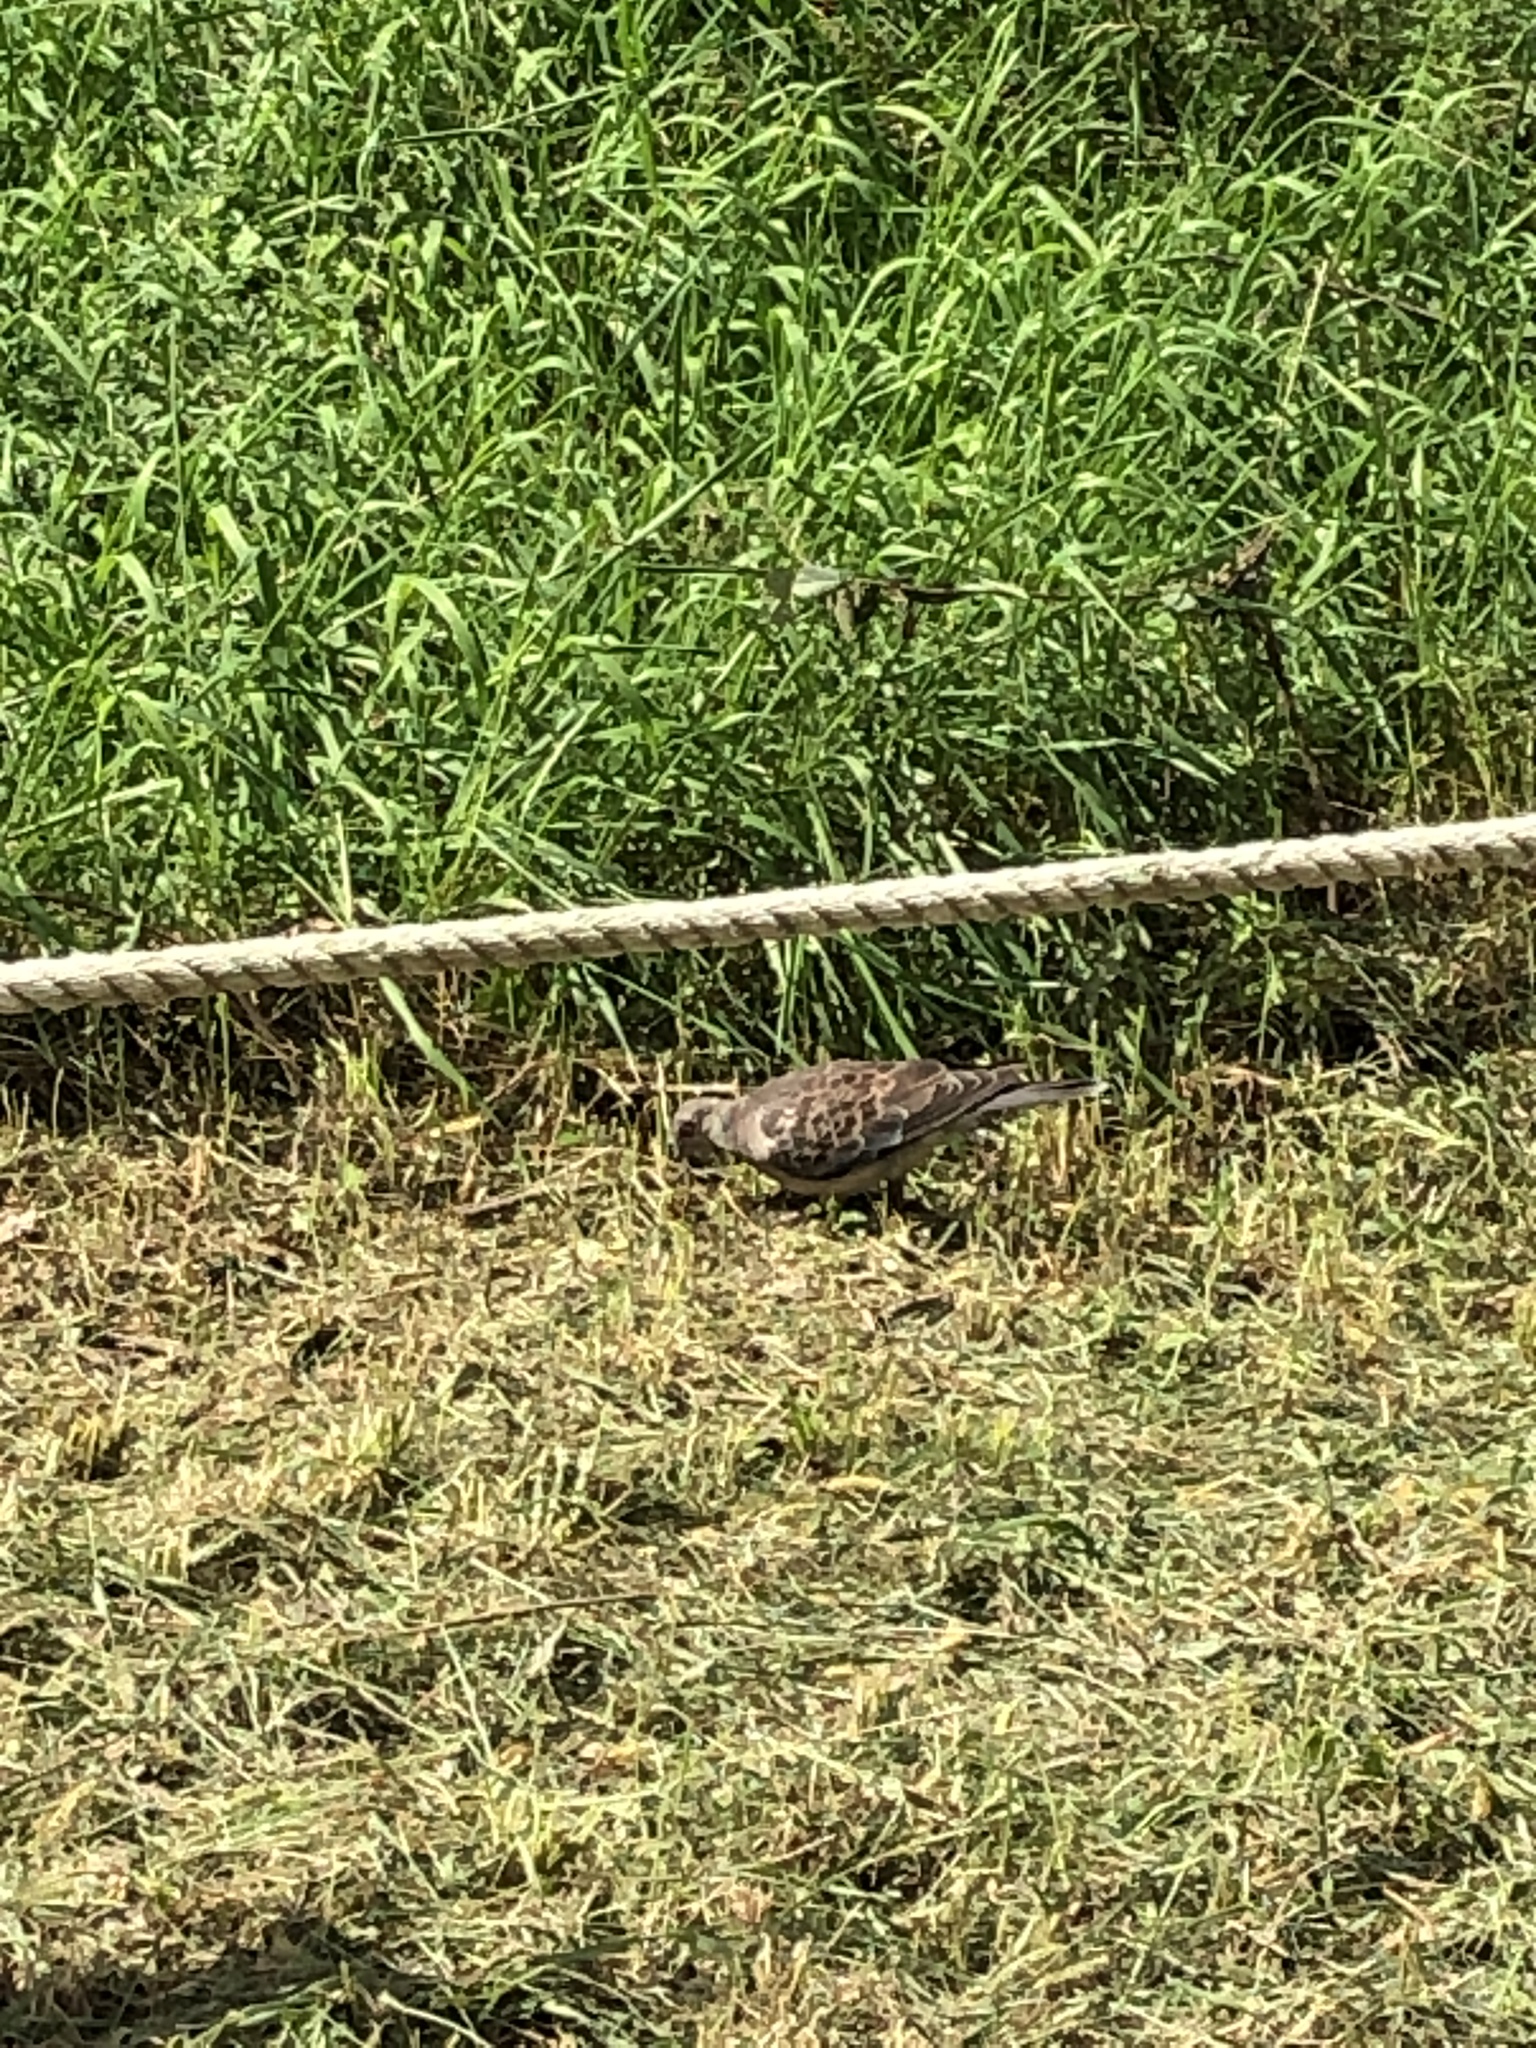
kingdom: Animalia
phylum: Chordata
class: Aves
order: Columbiformes
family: Columbidae
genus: Streptopelia
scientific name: Streptopelia orientalis
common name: Oriental turtle dove
